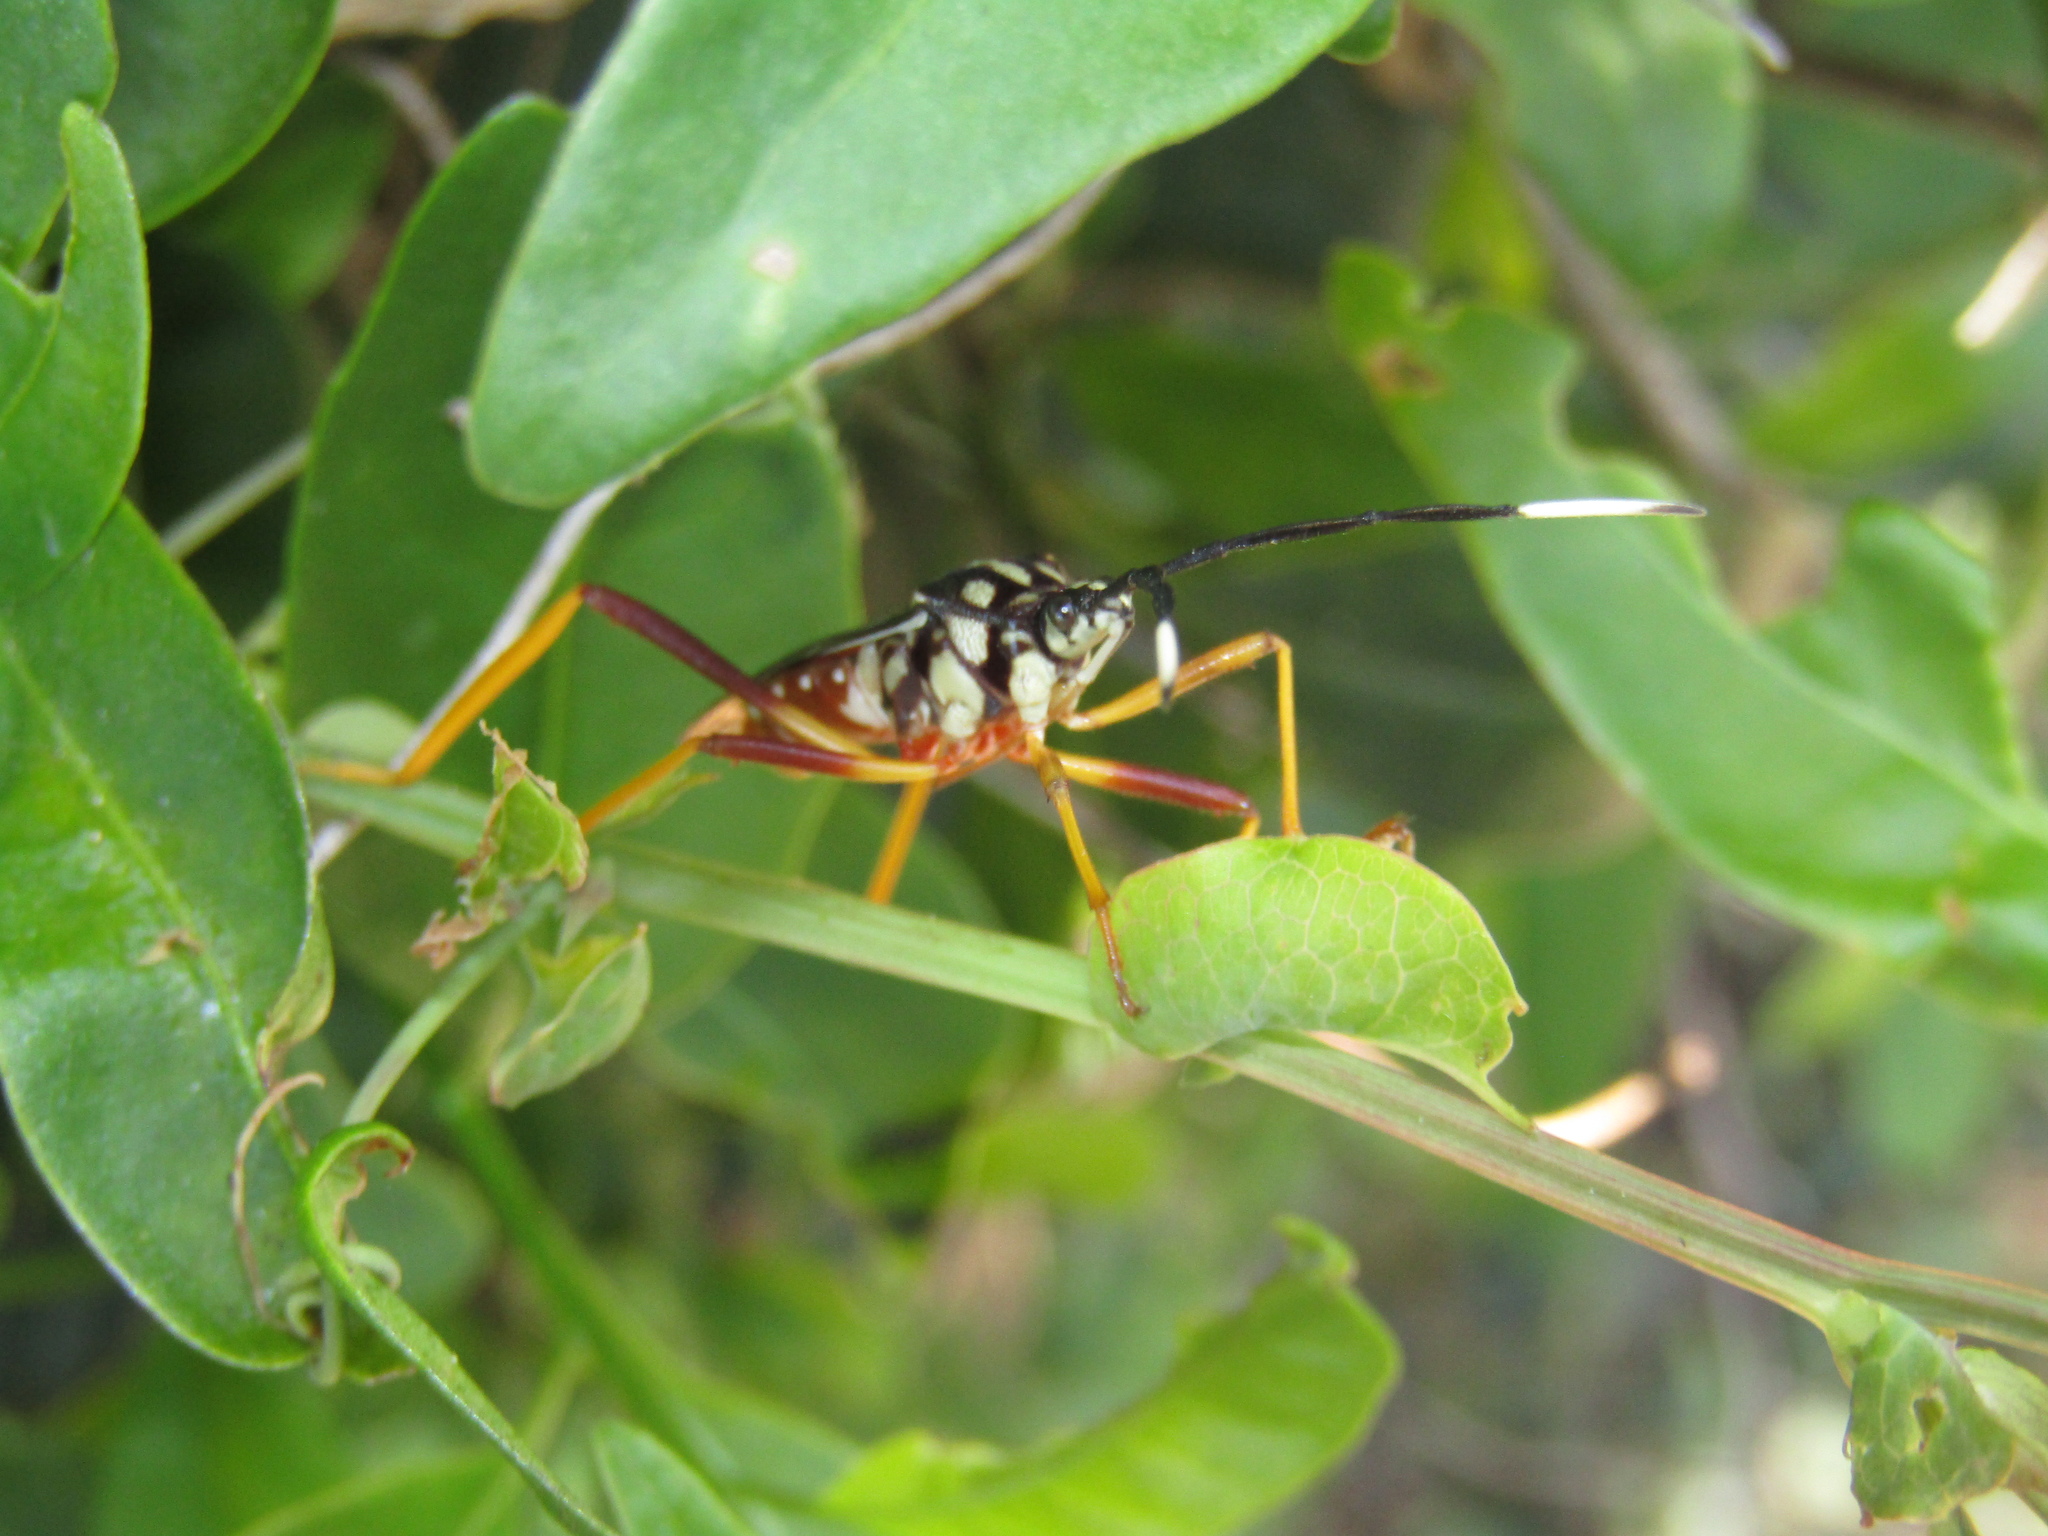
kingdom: Animalia
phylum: Arthropoda
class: Insecta
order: Hemiptera
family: Coreidae
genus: Holhymenia
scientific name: Holhymenia histrio
